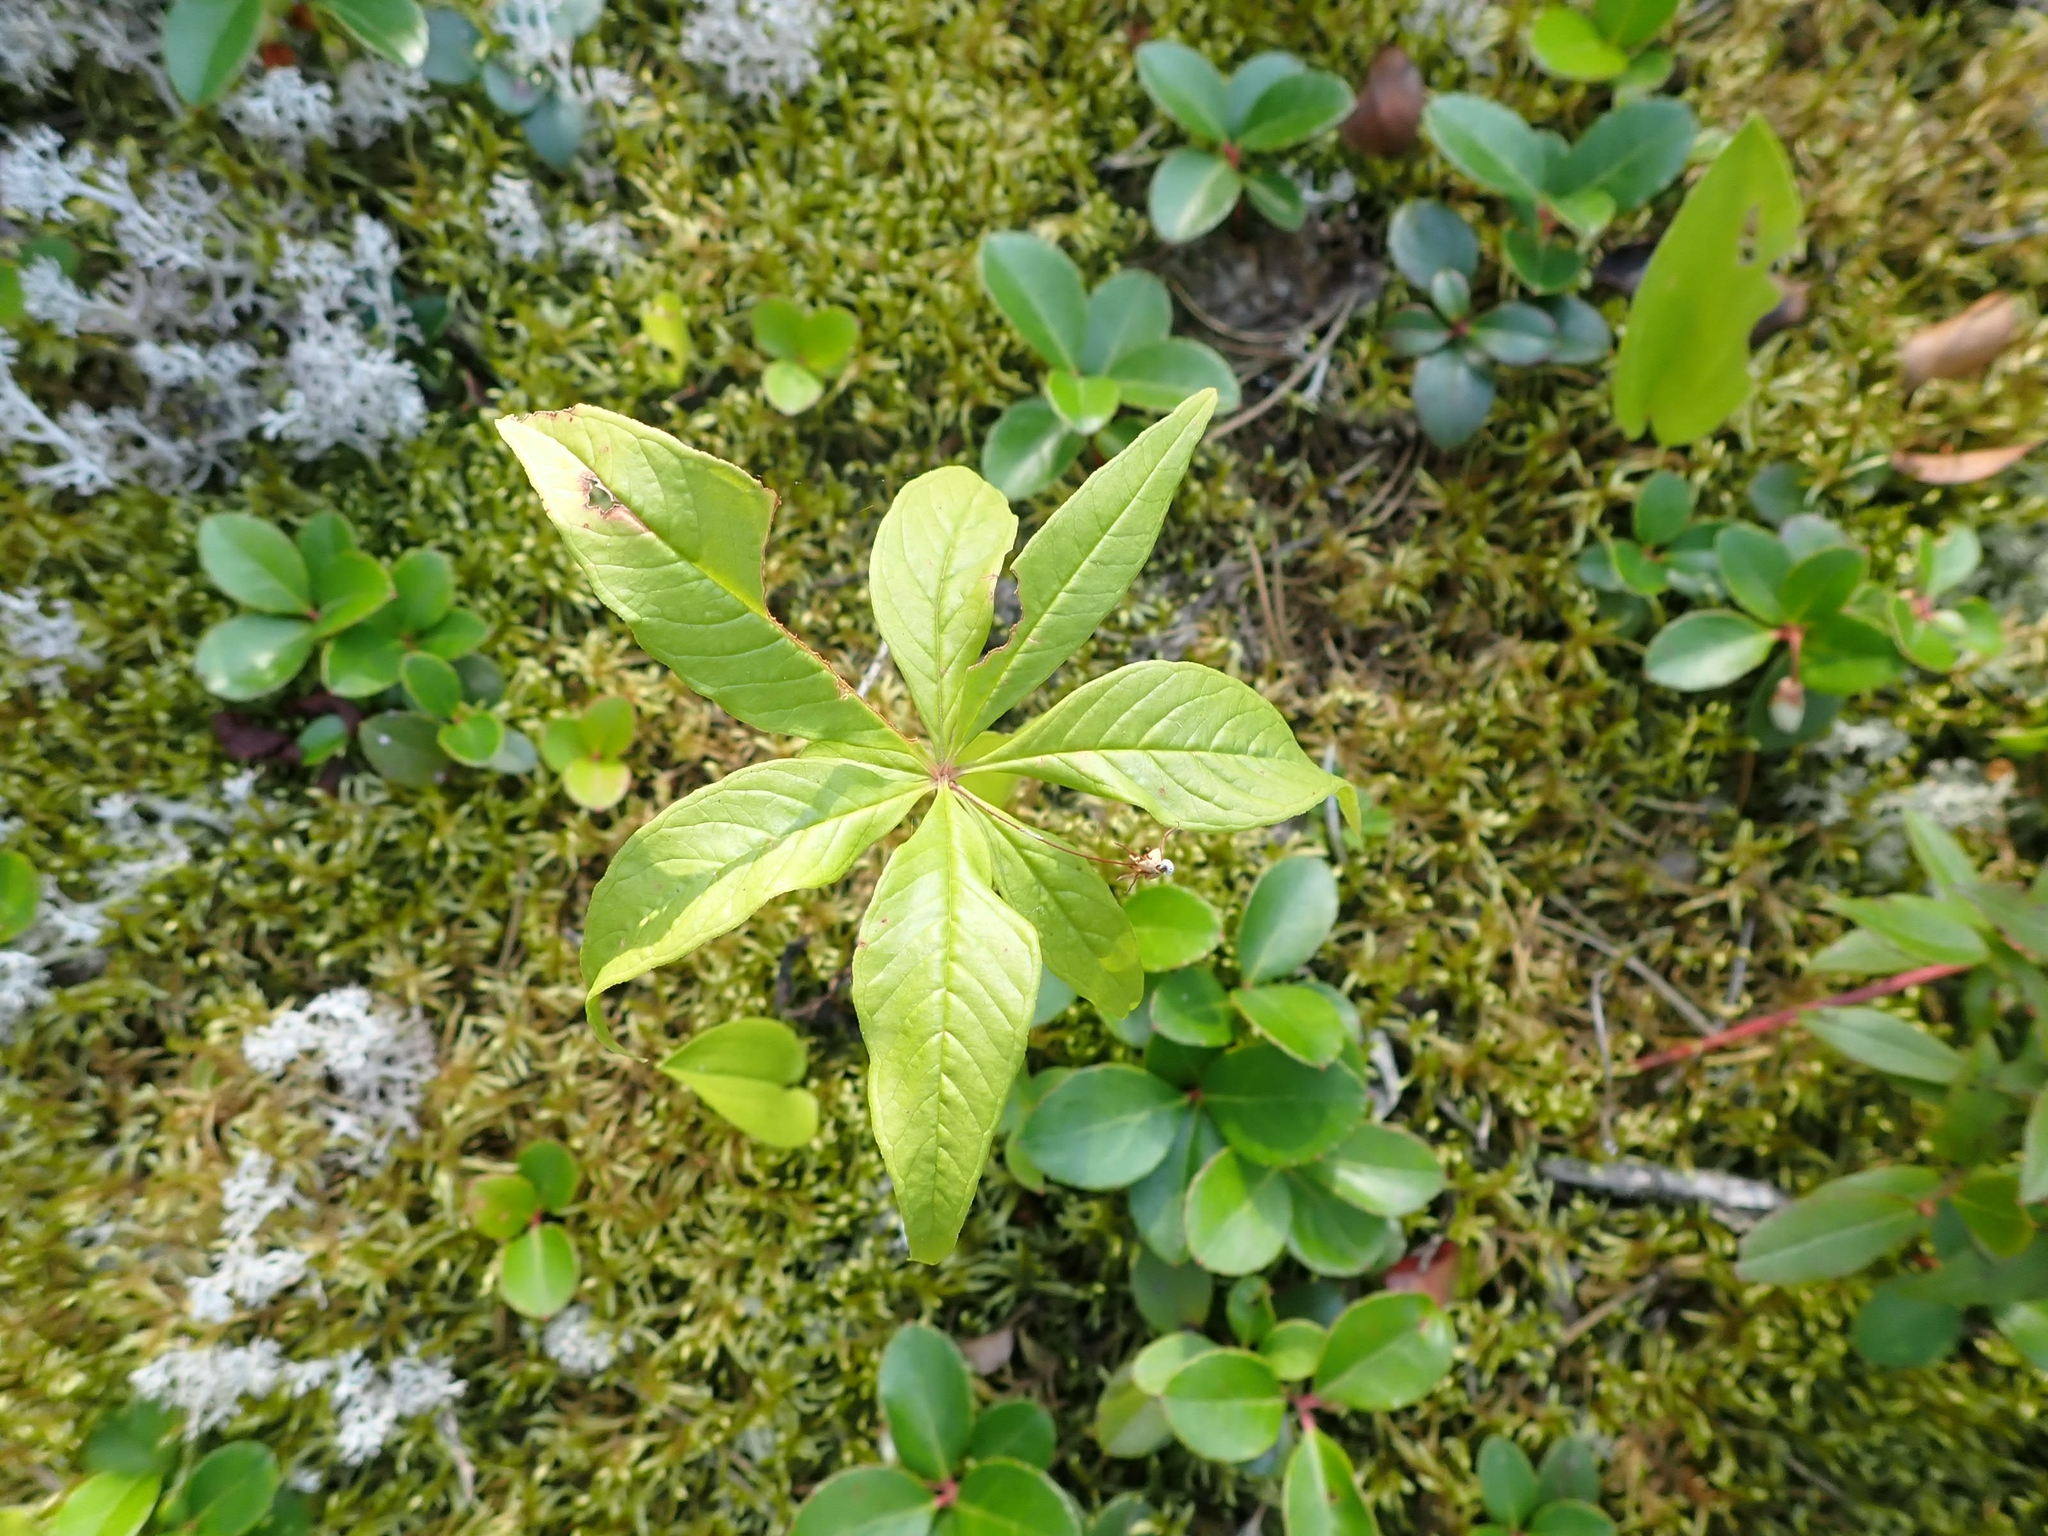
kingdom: Plantae
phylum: Tracheophyta
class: Magnoliopsida
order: Ericales
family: Primulaceae
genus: Lysimachia
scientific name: Lysimachia borealis
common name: American starflower
